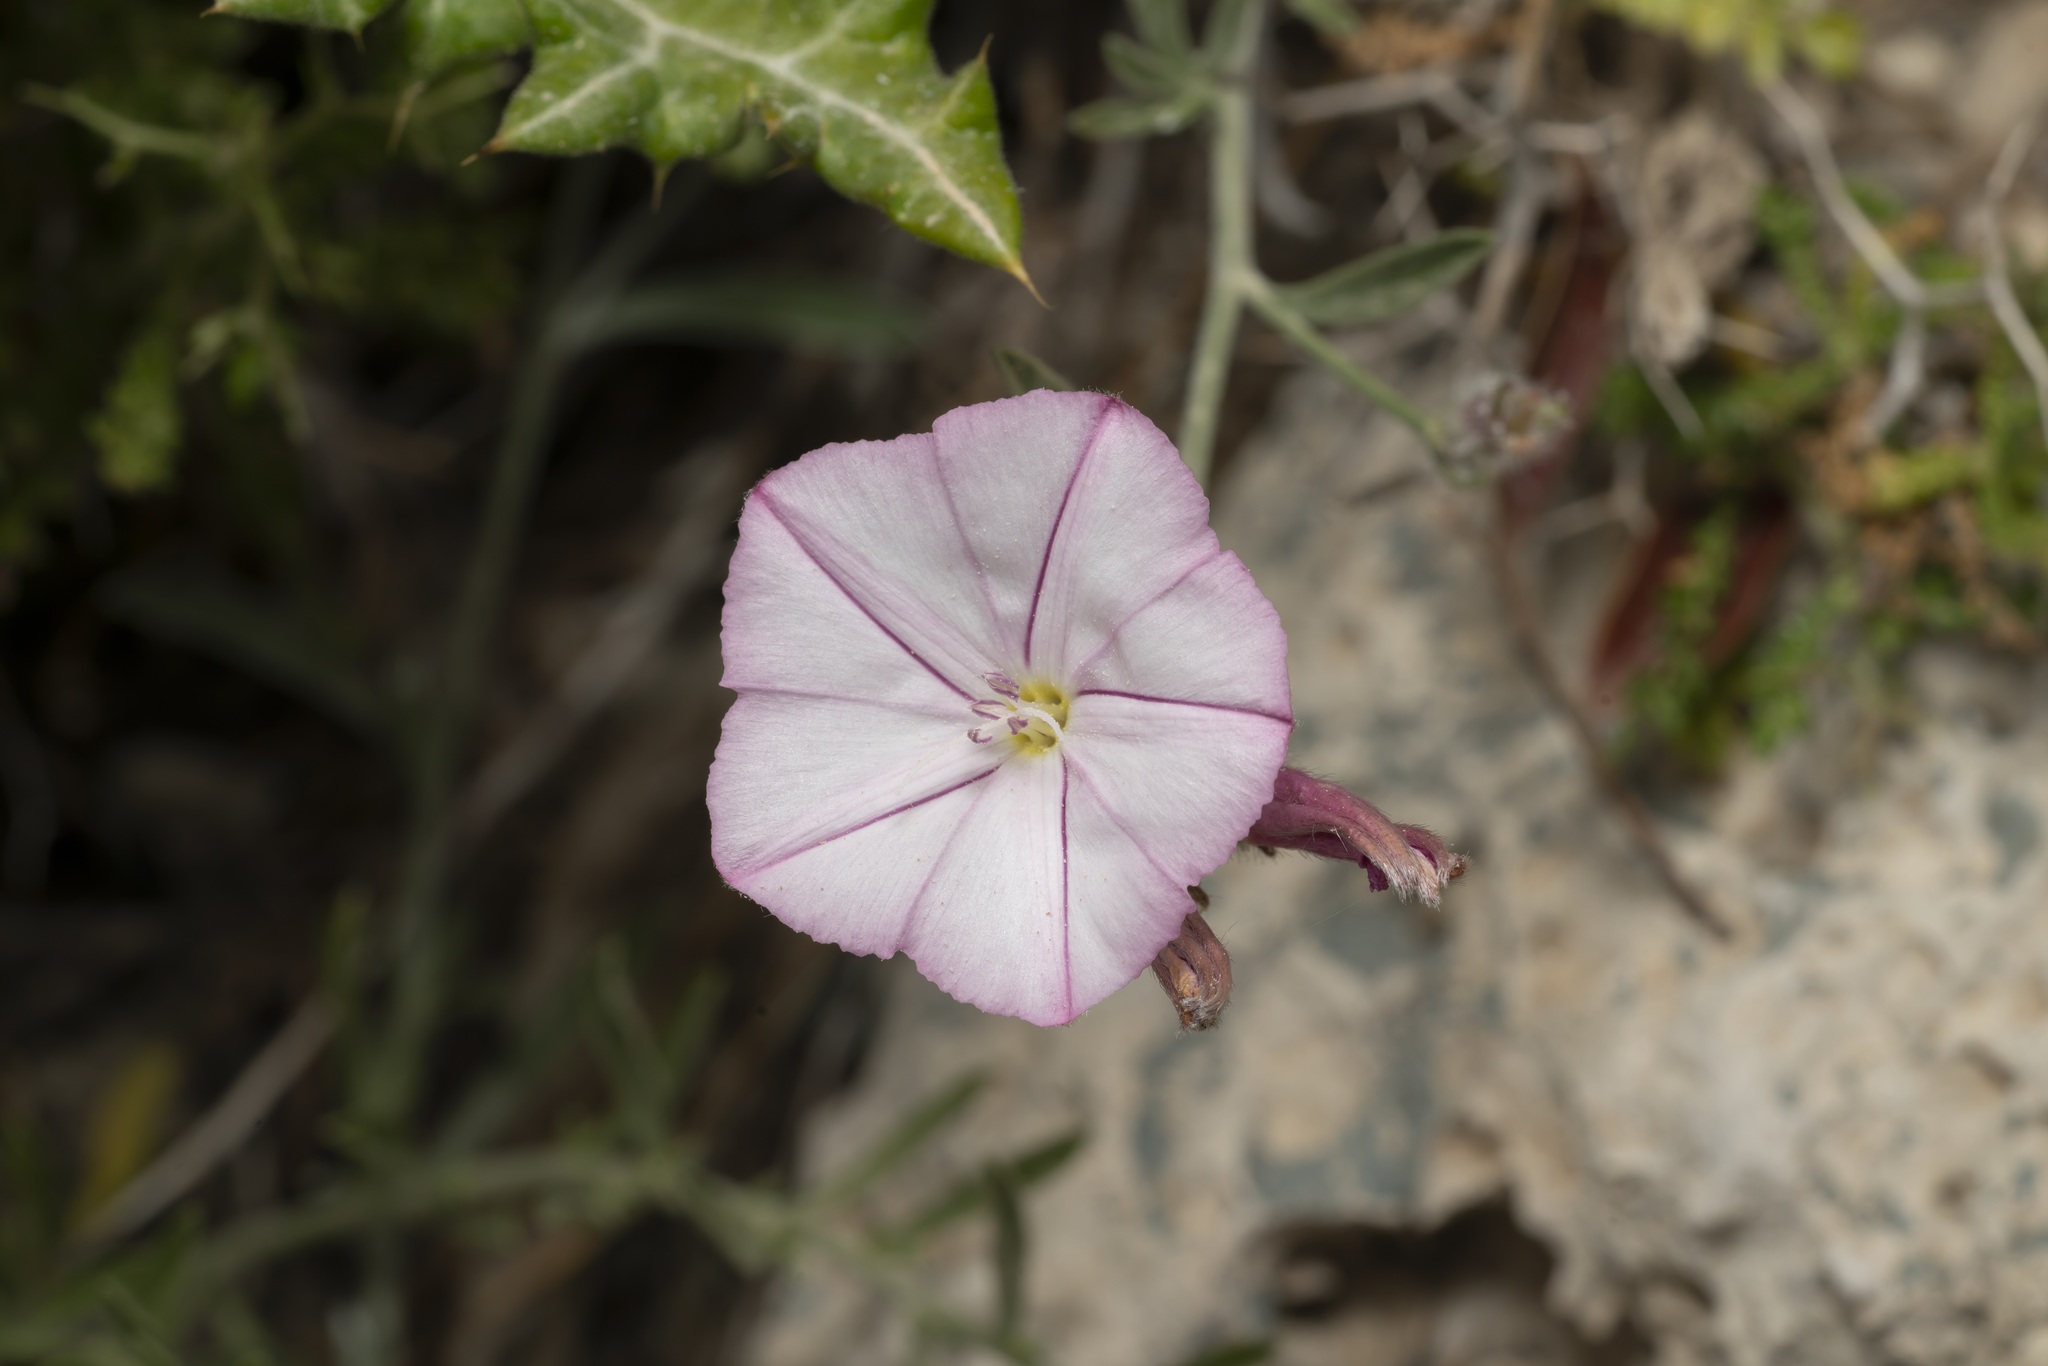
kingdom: Plantae
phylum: Tracheophyta
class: Magnoliopsida
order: Solanales
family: Convolvulaceae
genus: Convolvulus
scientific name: Convolvulus oleifolius
